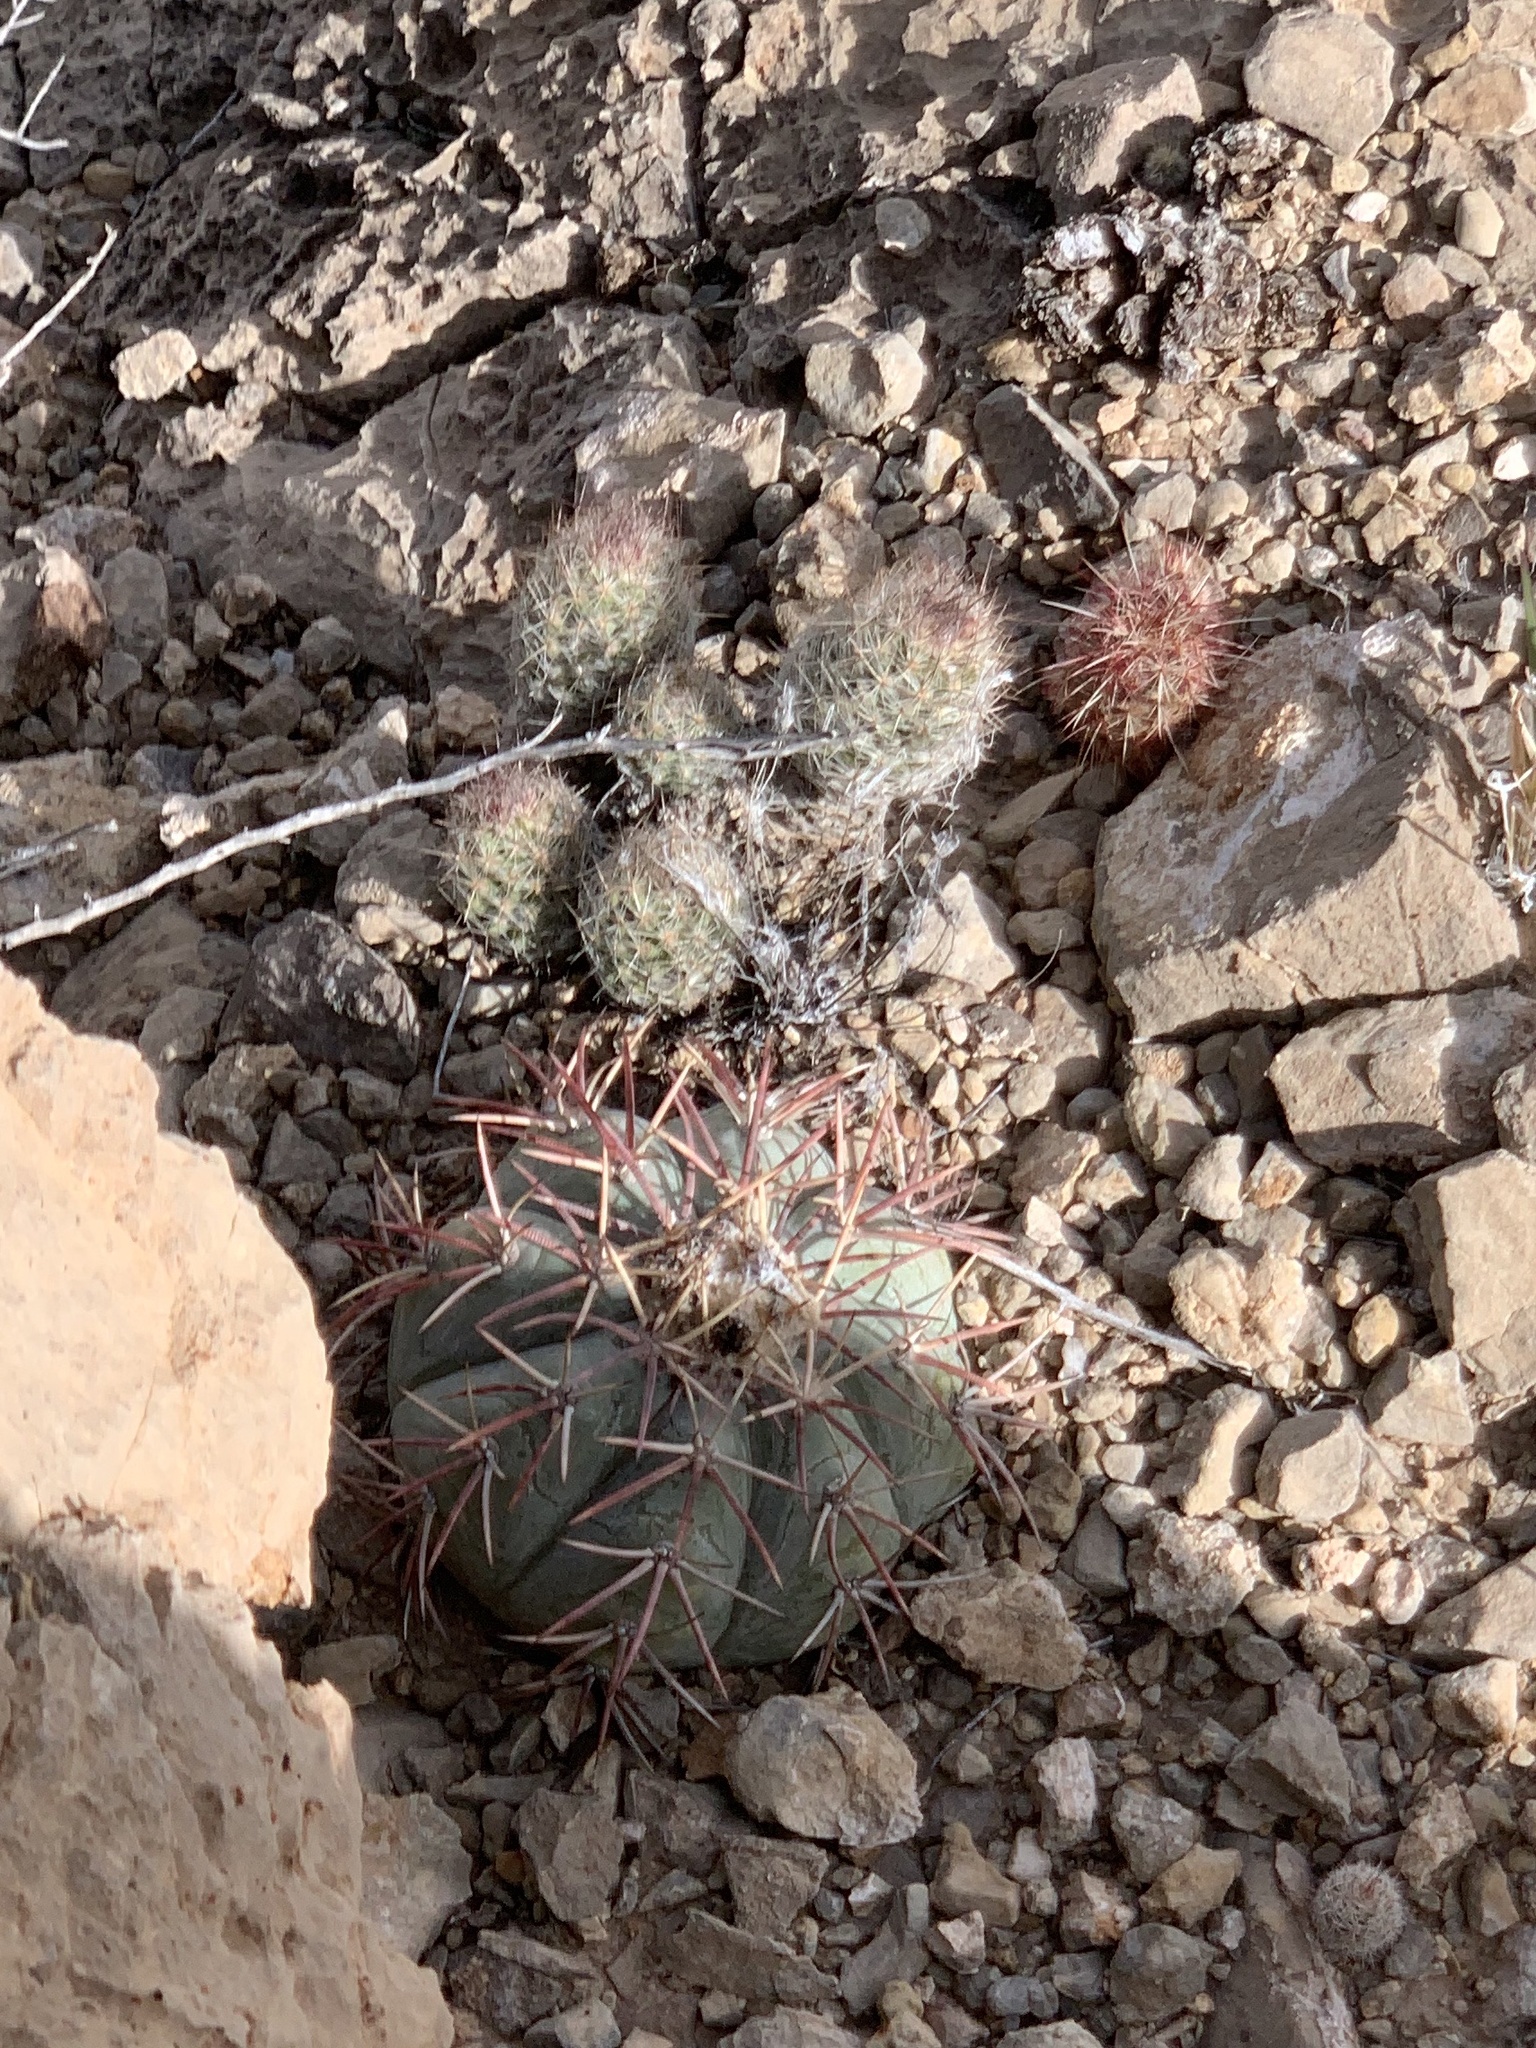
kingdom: Plantae
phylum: Tracheophyta
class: Magnoliopsida
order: Caryophyllales
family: Cactaceae
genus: Pelecyphora
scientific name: Pelecyphora tuberculosa
